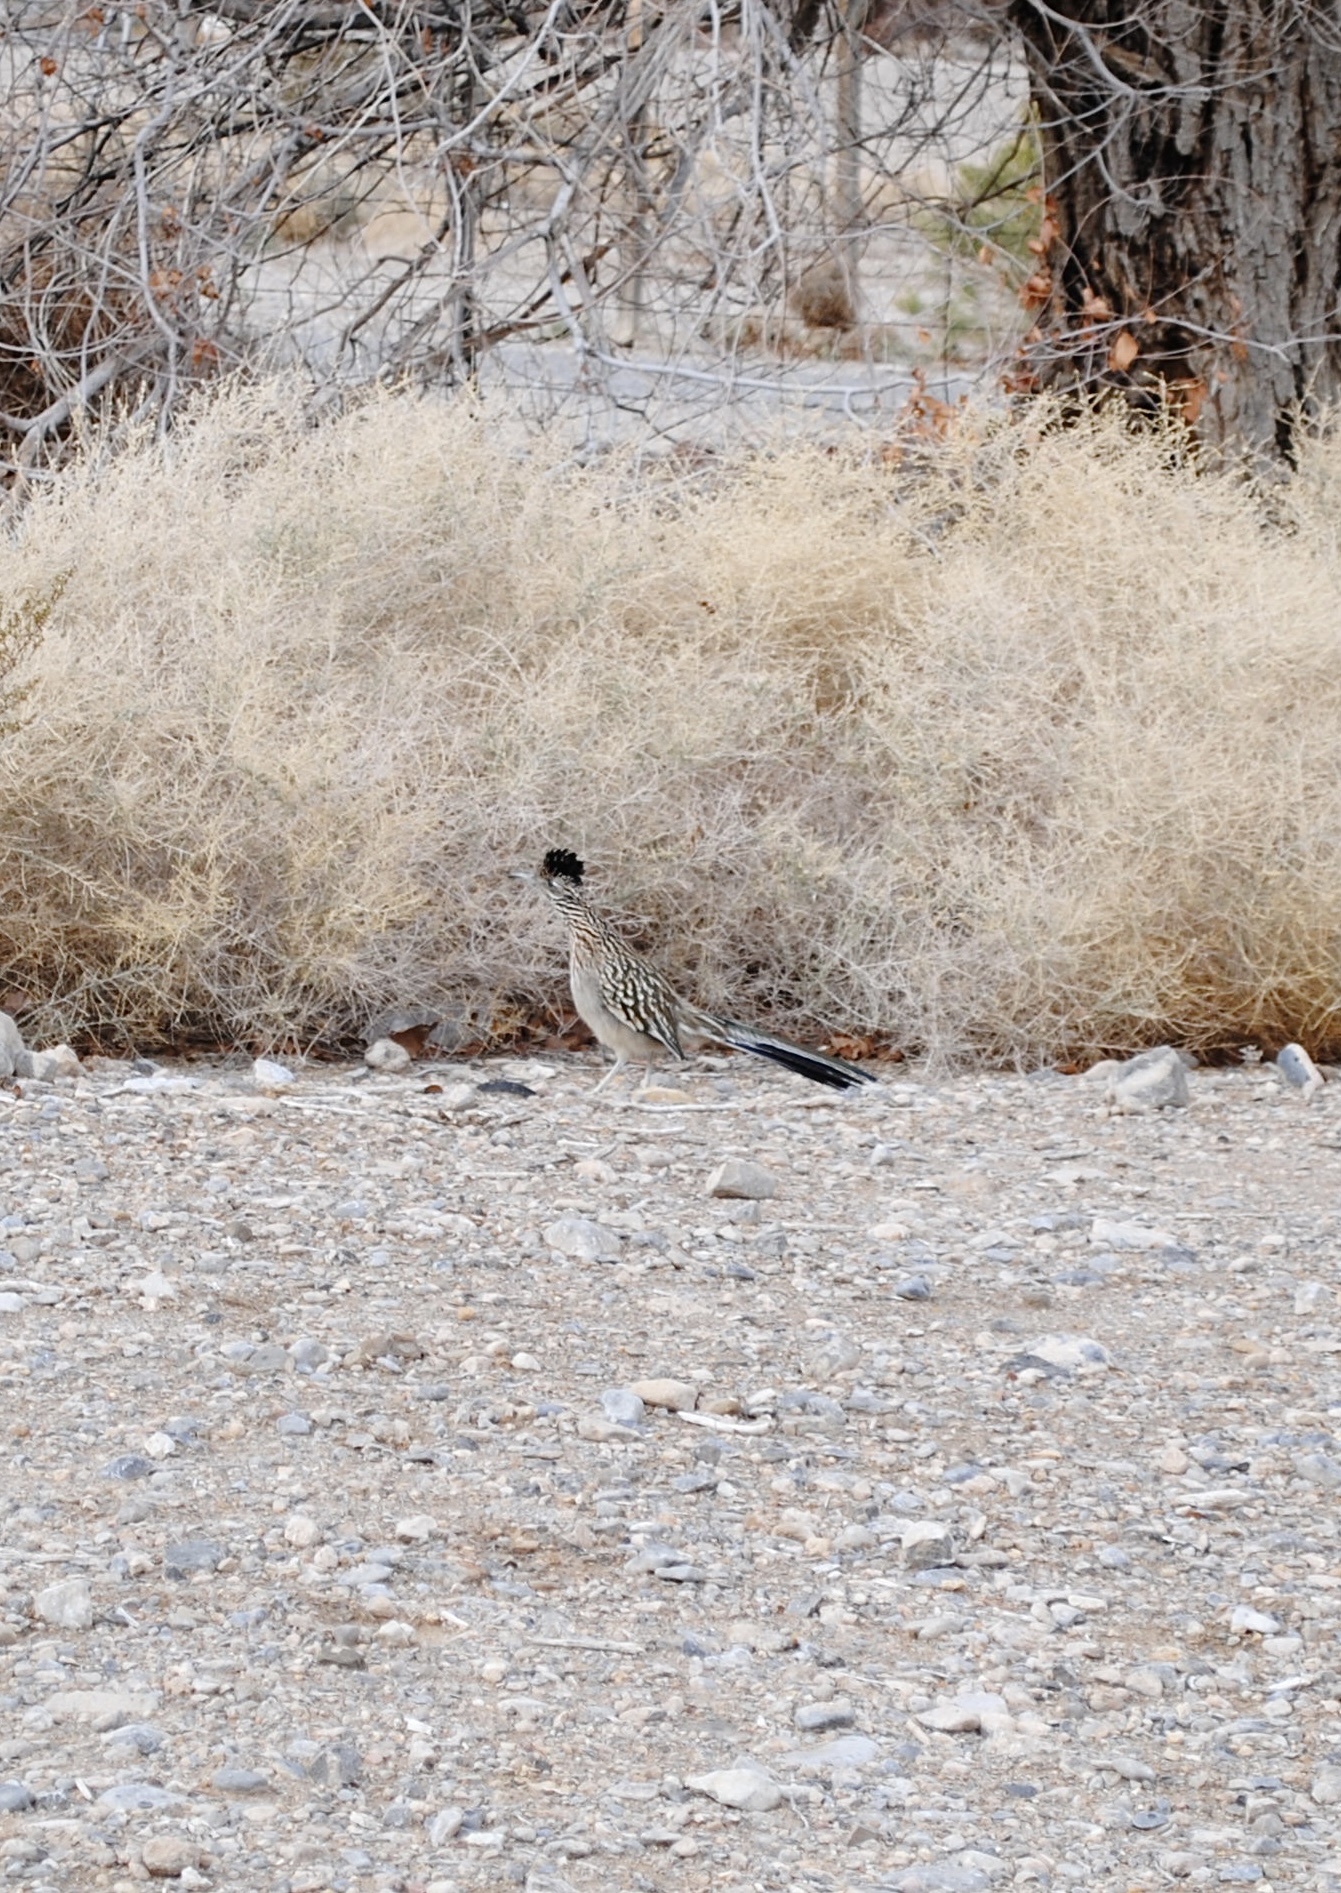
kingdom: Animalia
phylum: Chordata
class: Aves
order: Cuculiformes
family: Cuculidae
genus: Geococcyx
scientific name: Geococcyx californianus
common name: Greater roadrunner
